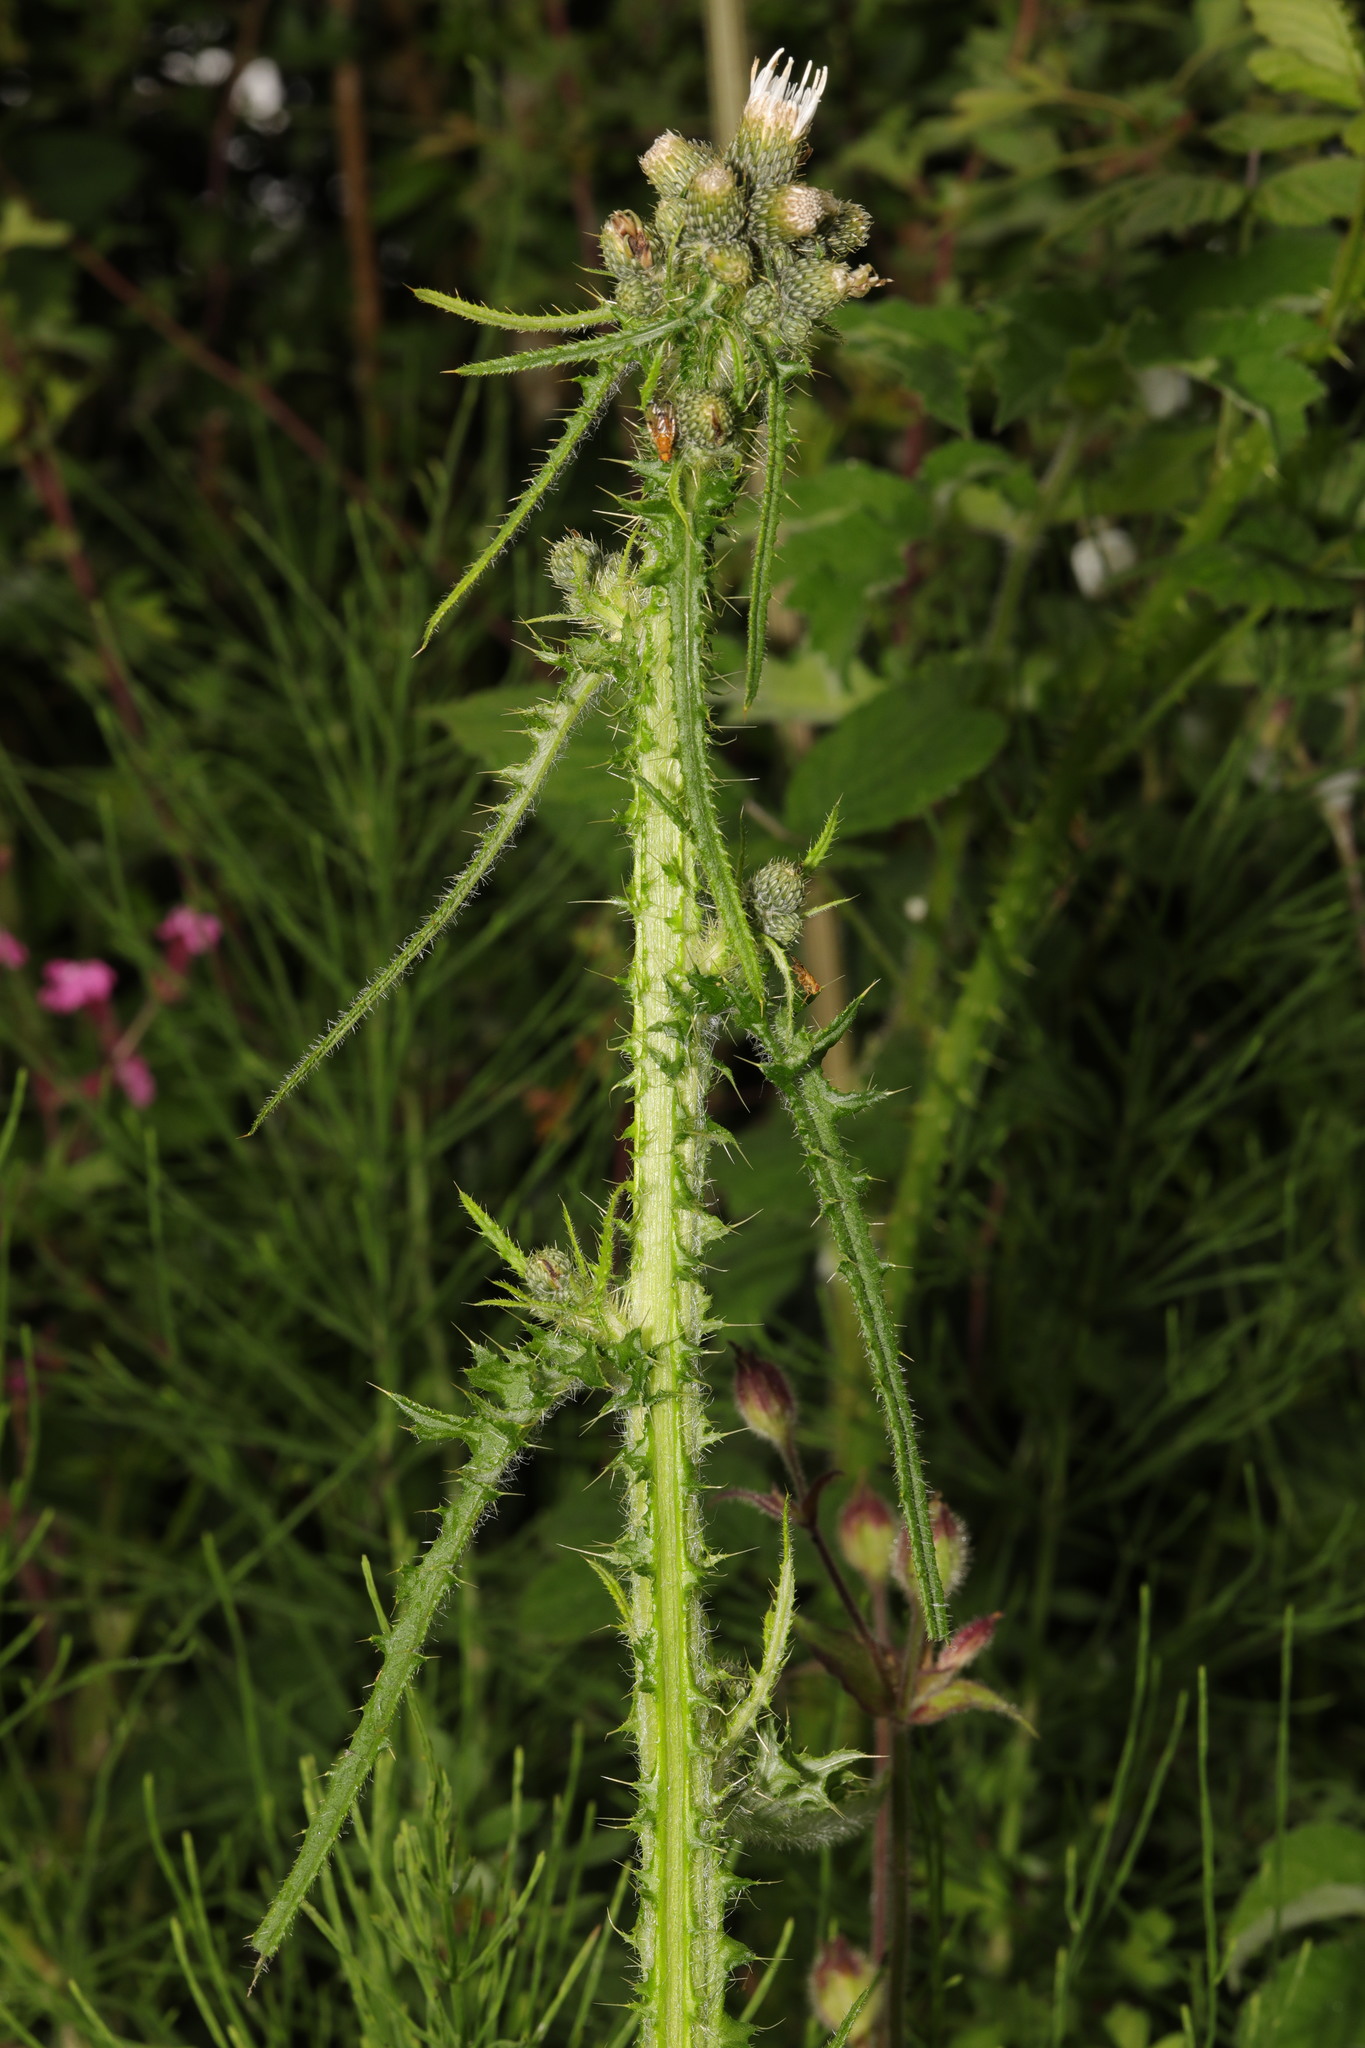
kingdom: Plantae
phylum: Tracheophyta
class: Magnoliopsida
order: Asterales
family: Asteraceae
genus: Cirsium
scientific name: Cirsium palustre
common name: Marsh thistle
